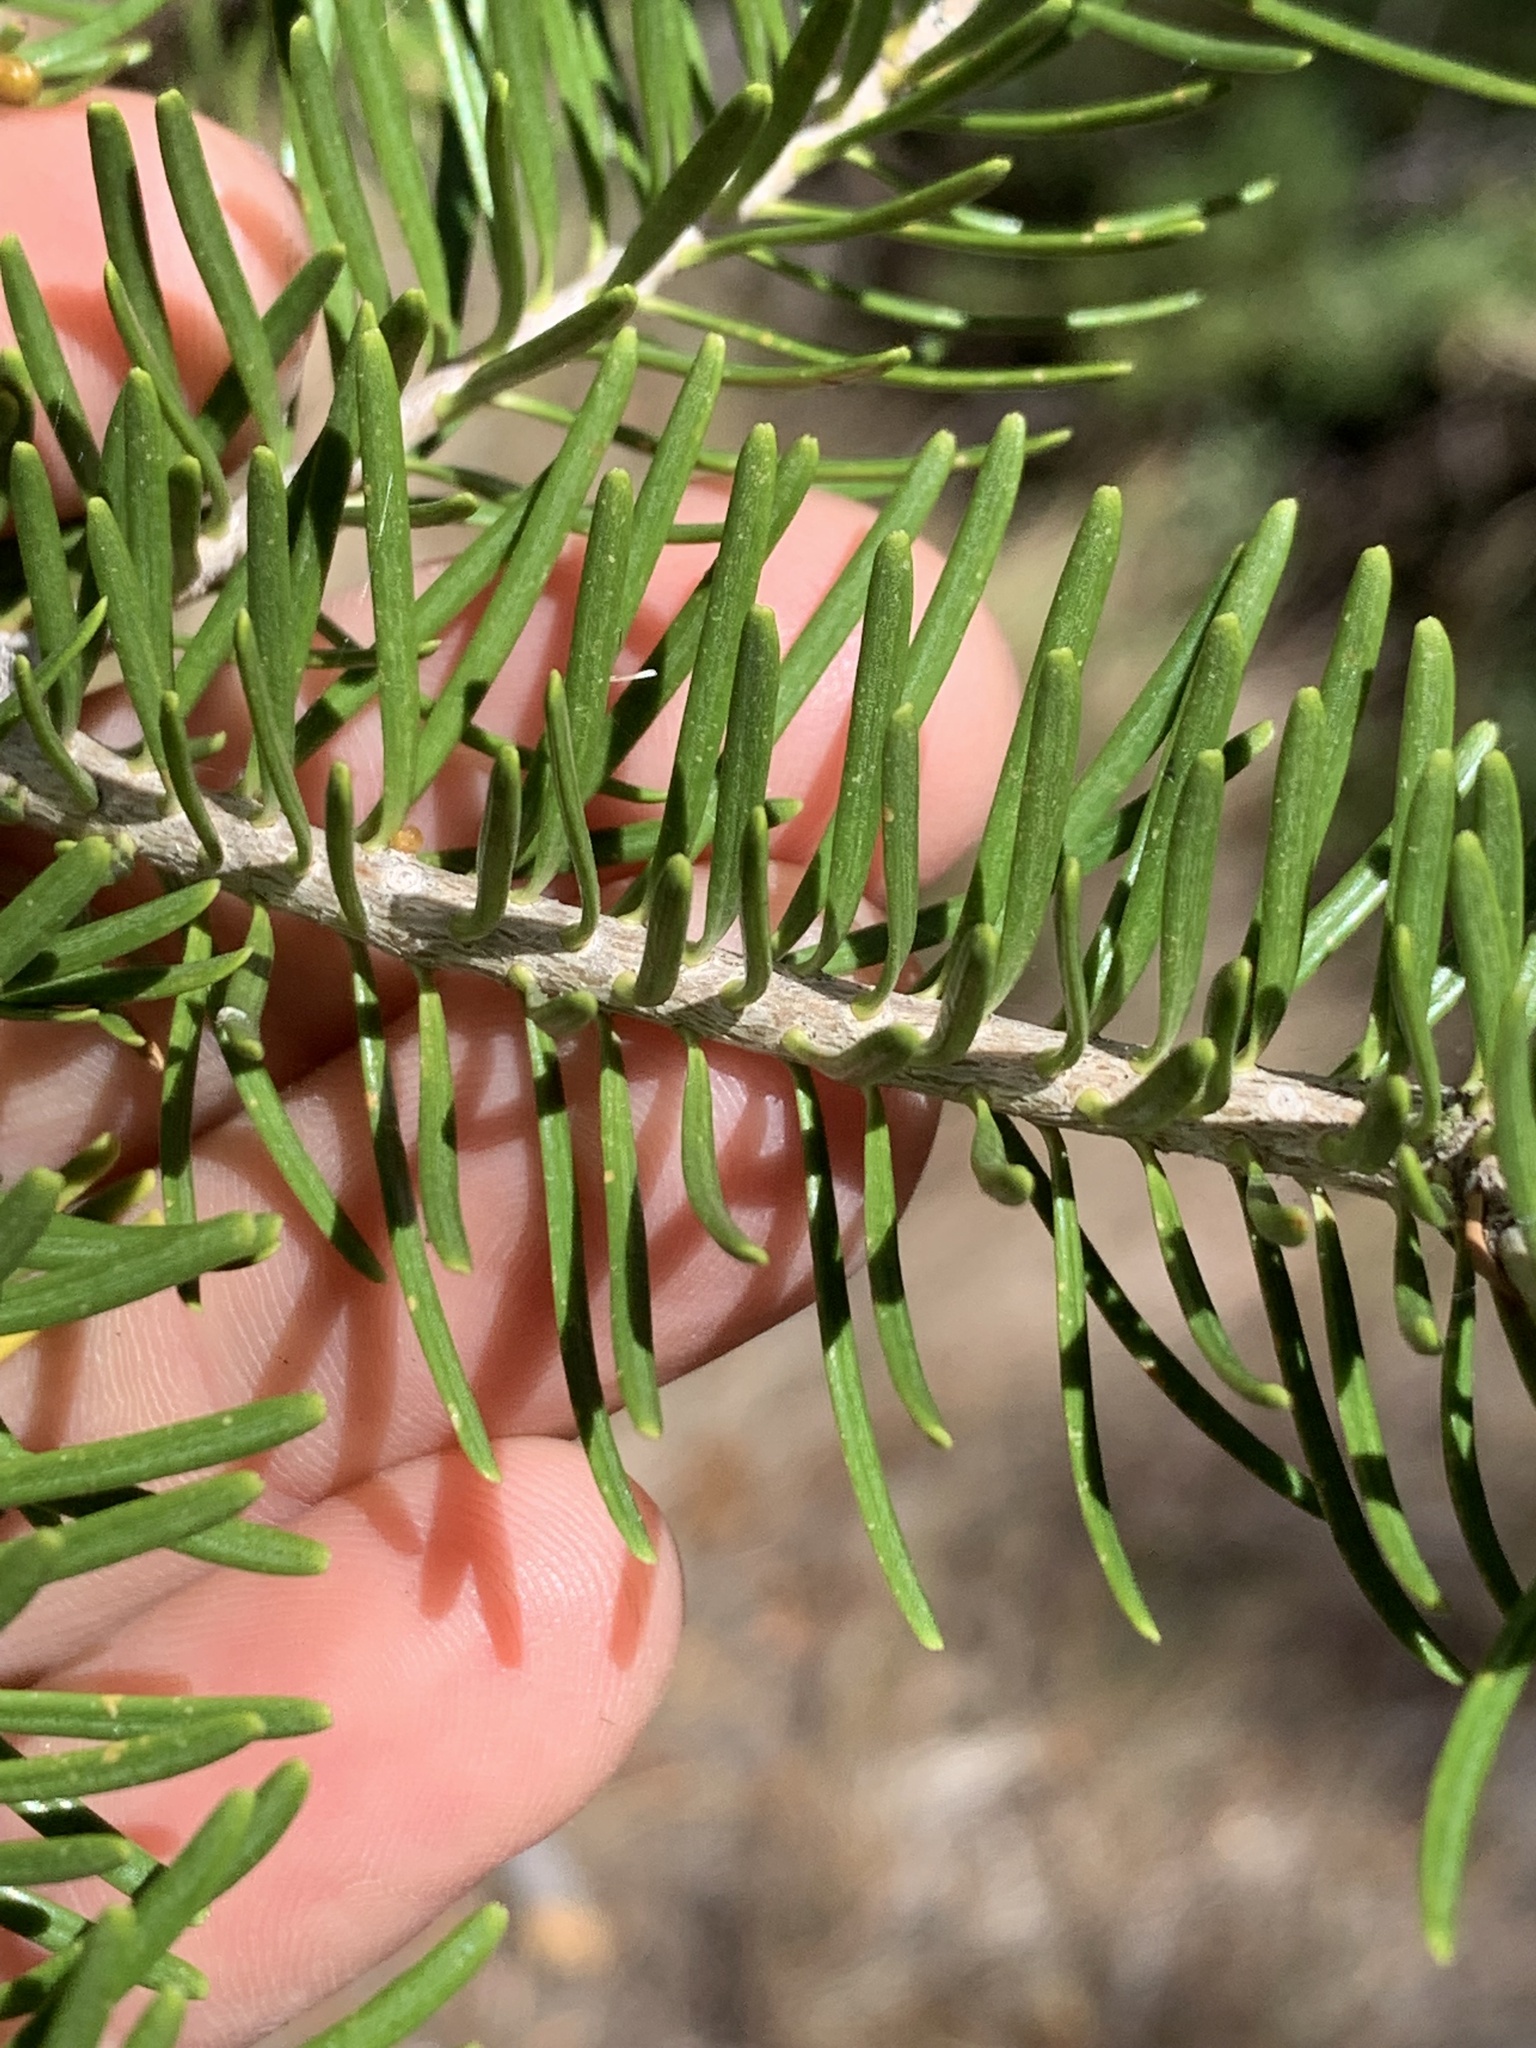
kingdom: Plantae
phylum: Tracheophyta
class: Pinopsida
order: Pinales
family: Pinaceae
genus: Abies
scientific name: Abies lasiocarpa
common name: Subalpine fir
